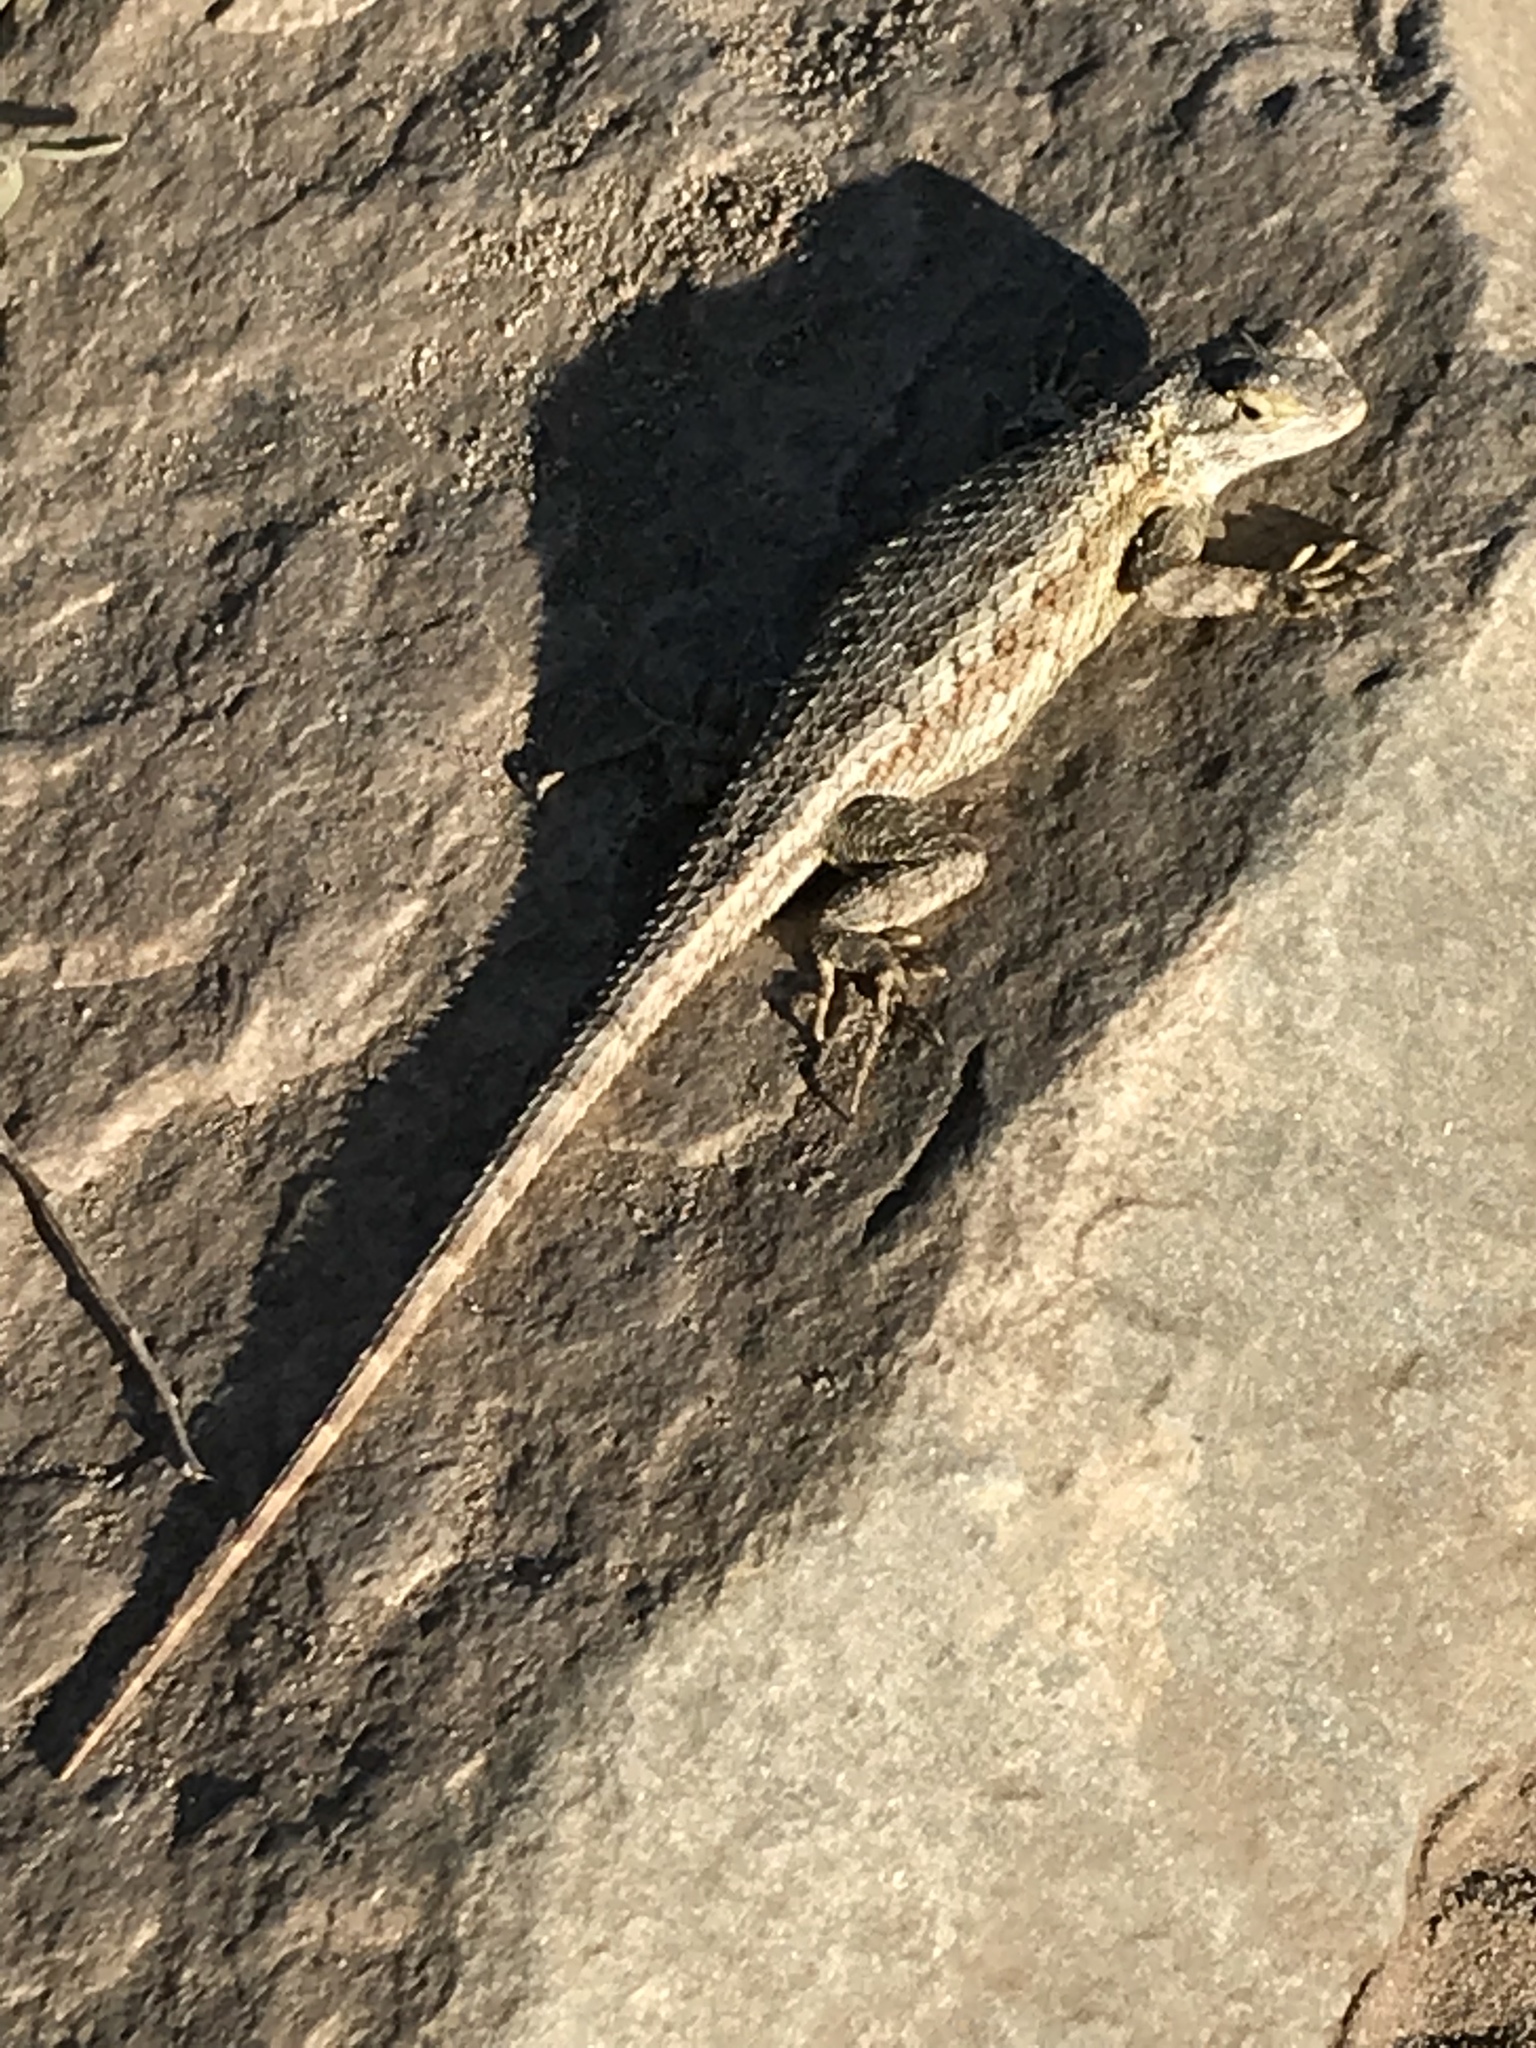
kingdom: Animalia
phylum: Chordata
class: Squamata
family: Phrynosomatidae
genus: Sceloporus
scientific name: Sceloporus occidentalis
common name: Western fence lizard
